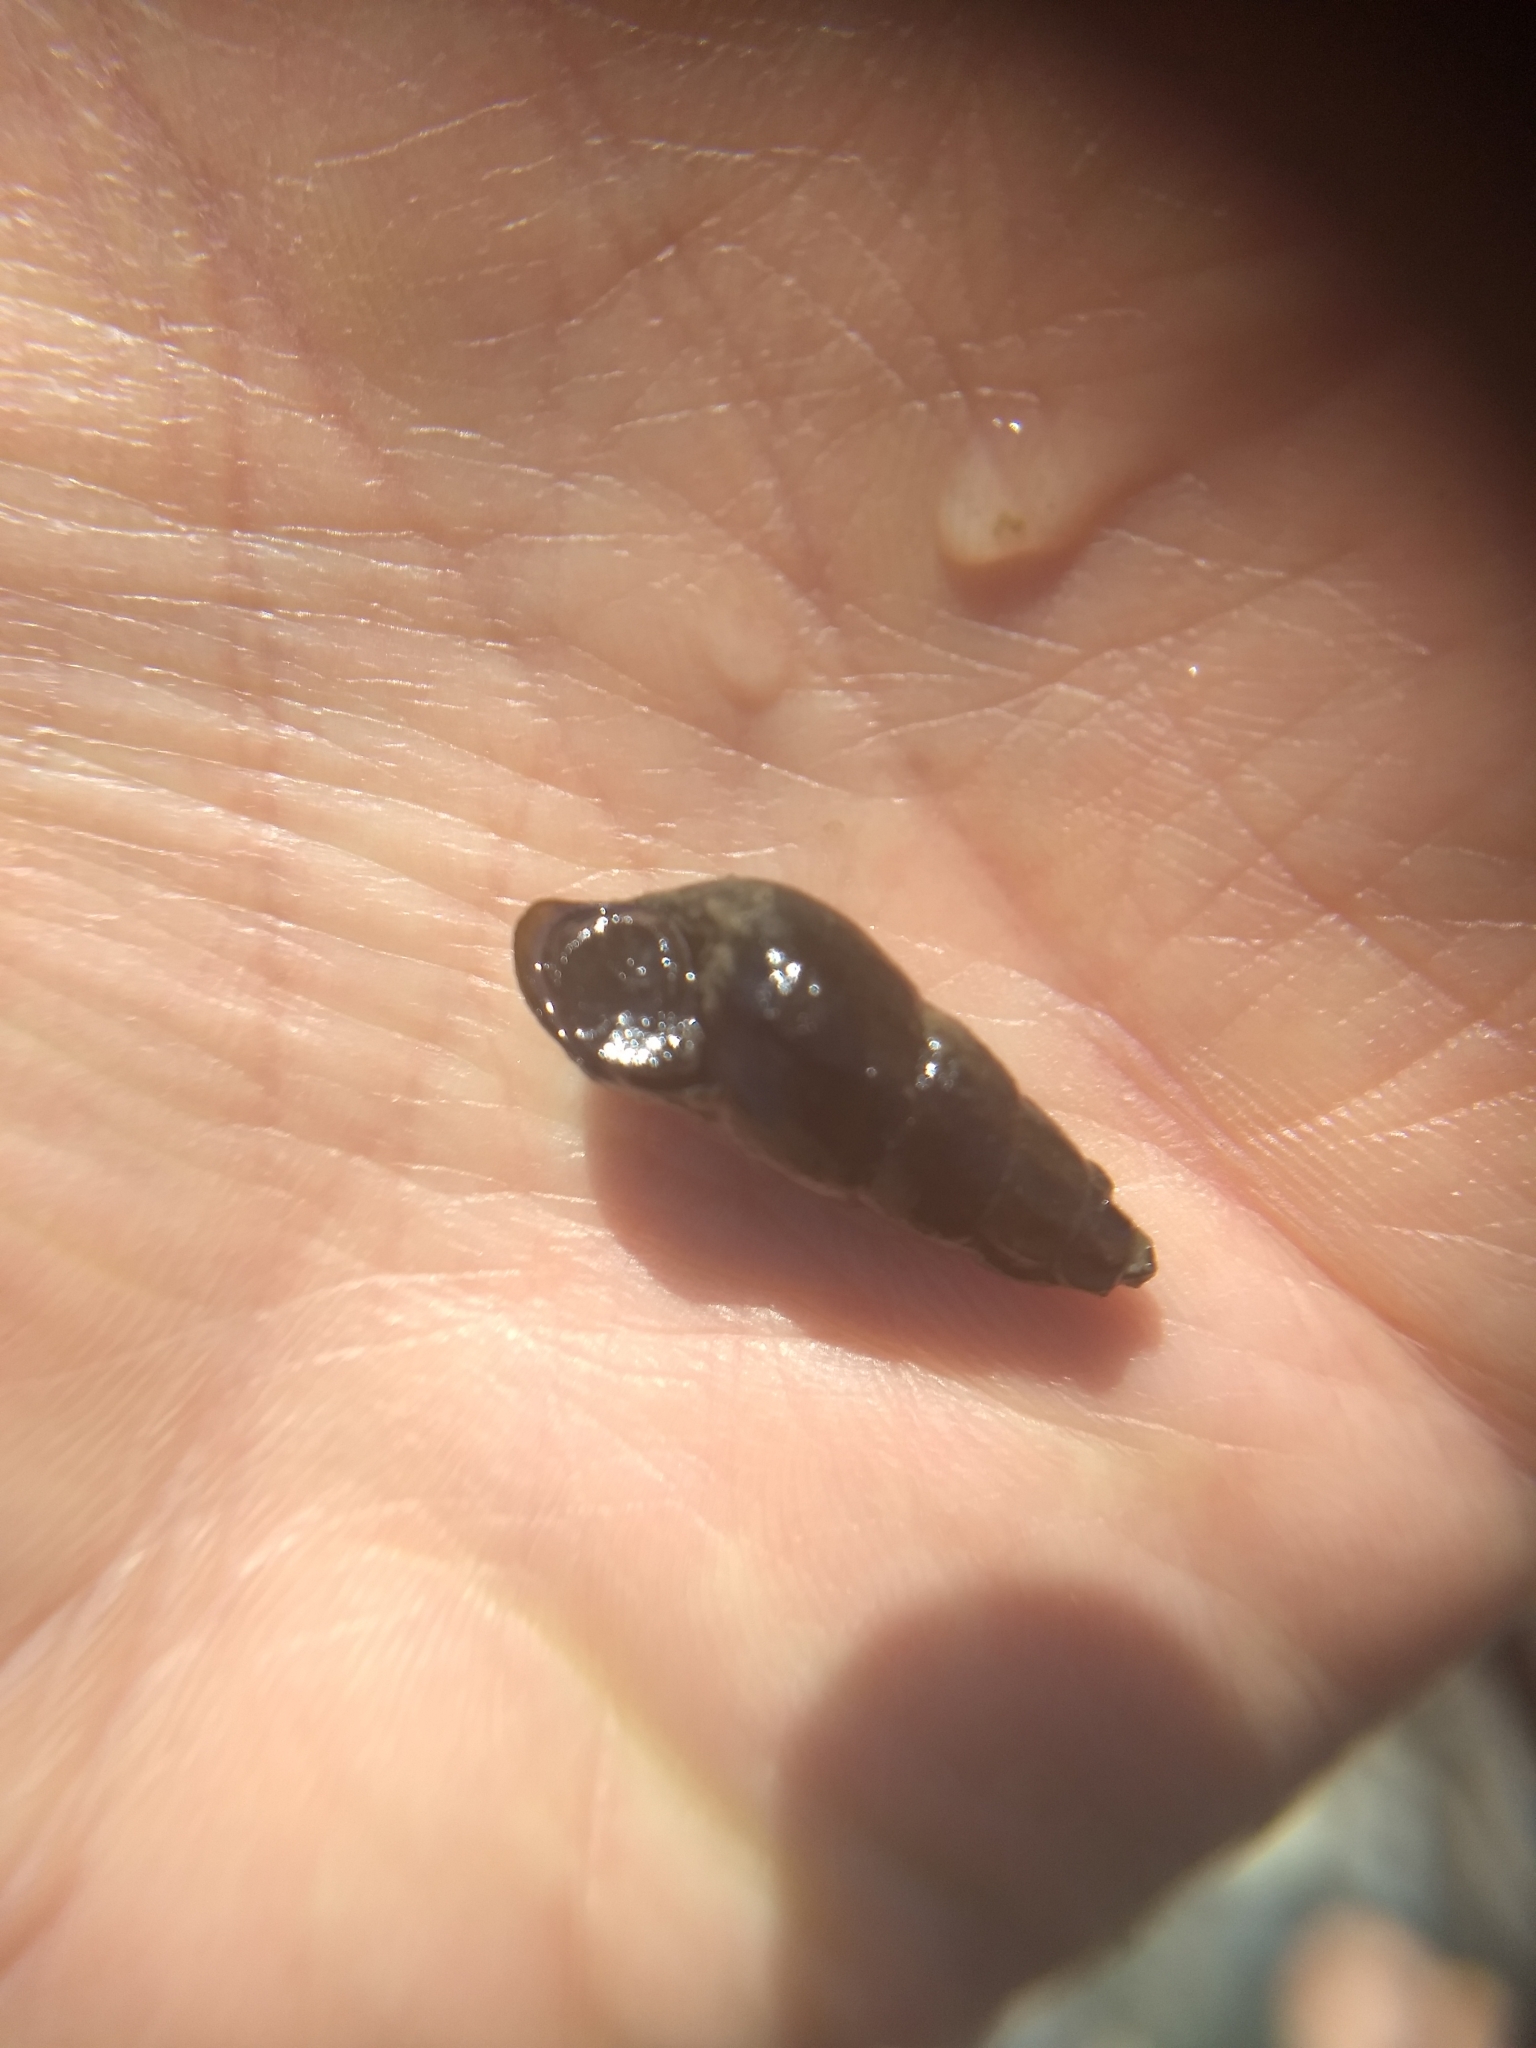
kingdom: Animalia
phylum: Mollusca
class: Gastropoda
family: Semisulcospiridae
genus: Juga
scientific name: Juga plicifera
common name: Pleated juga
